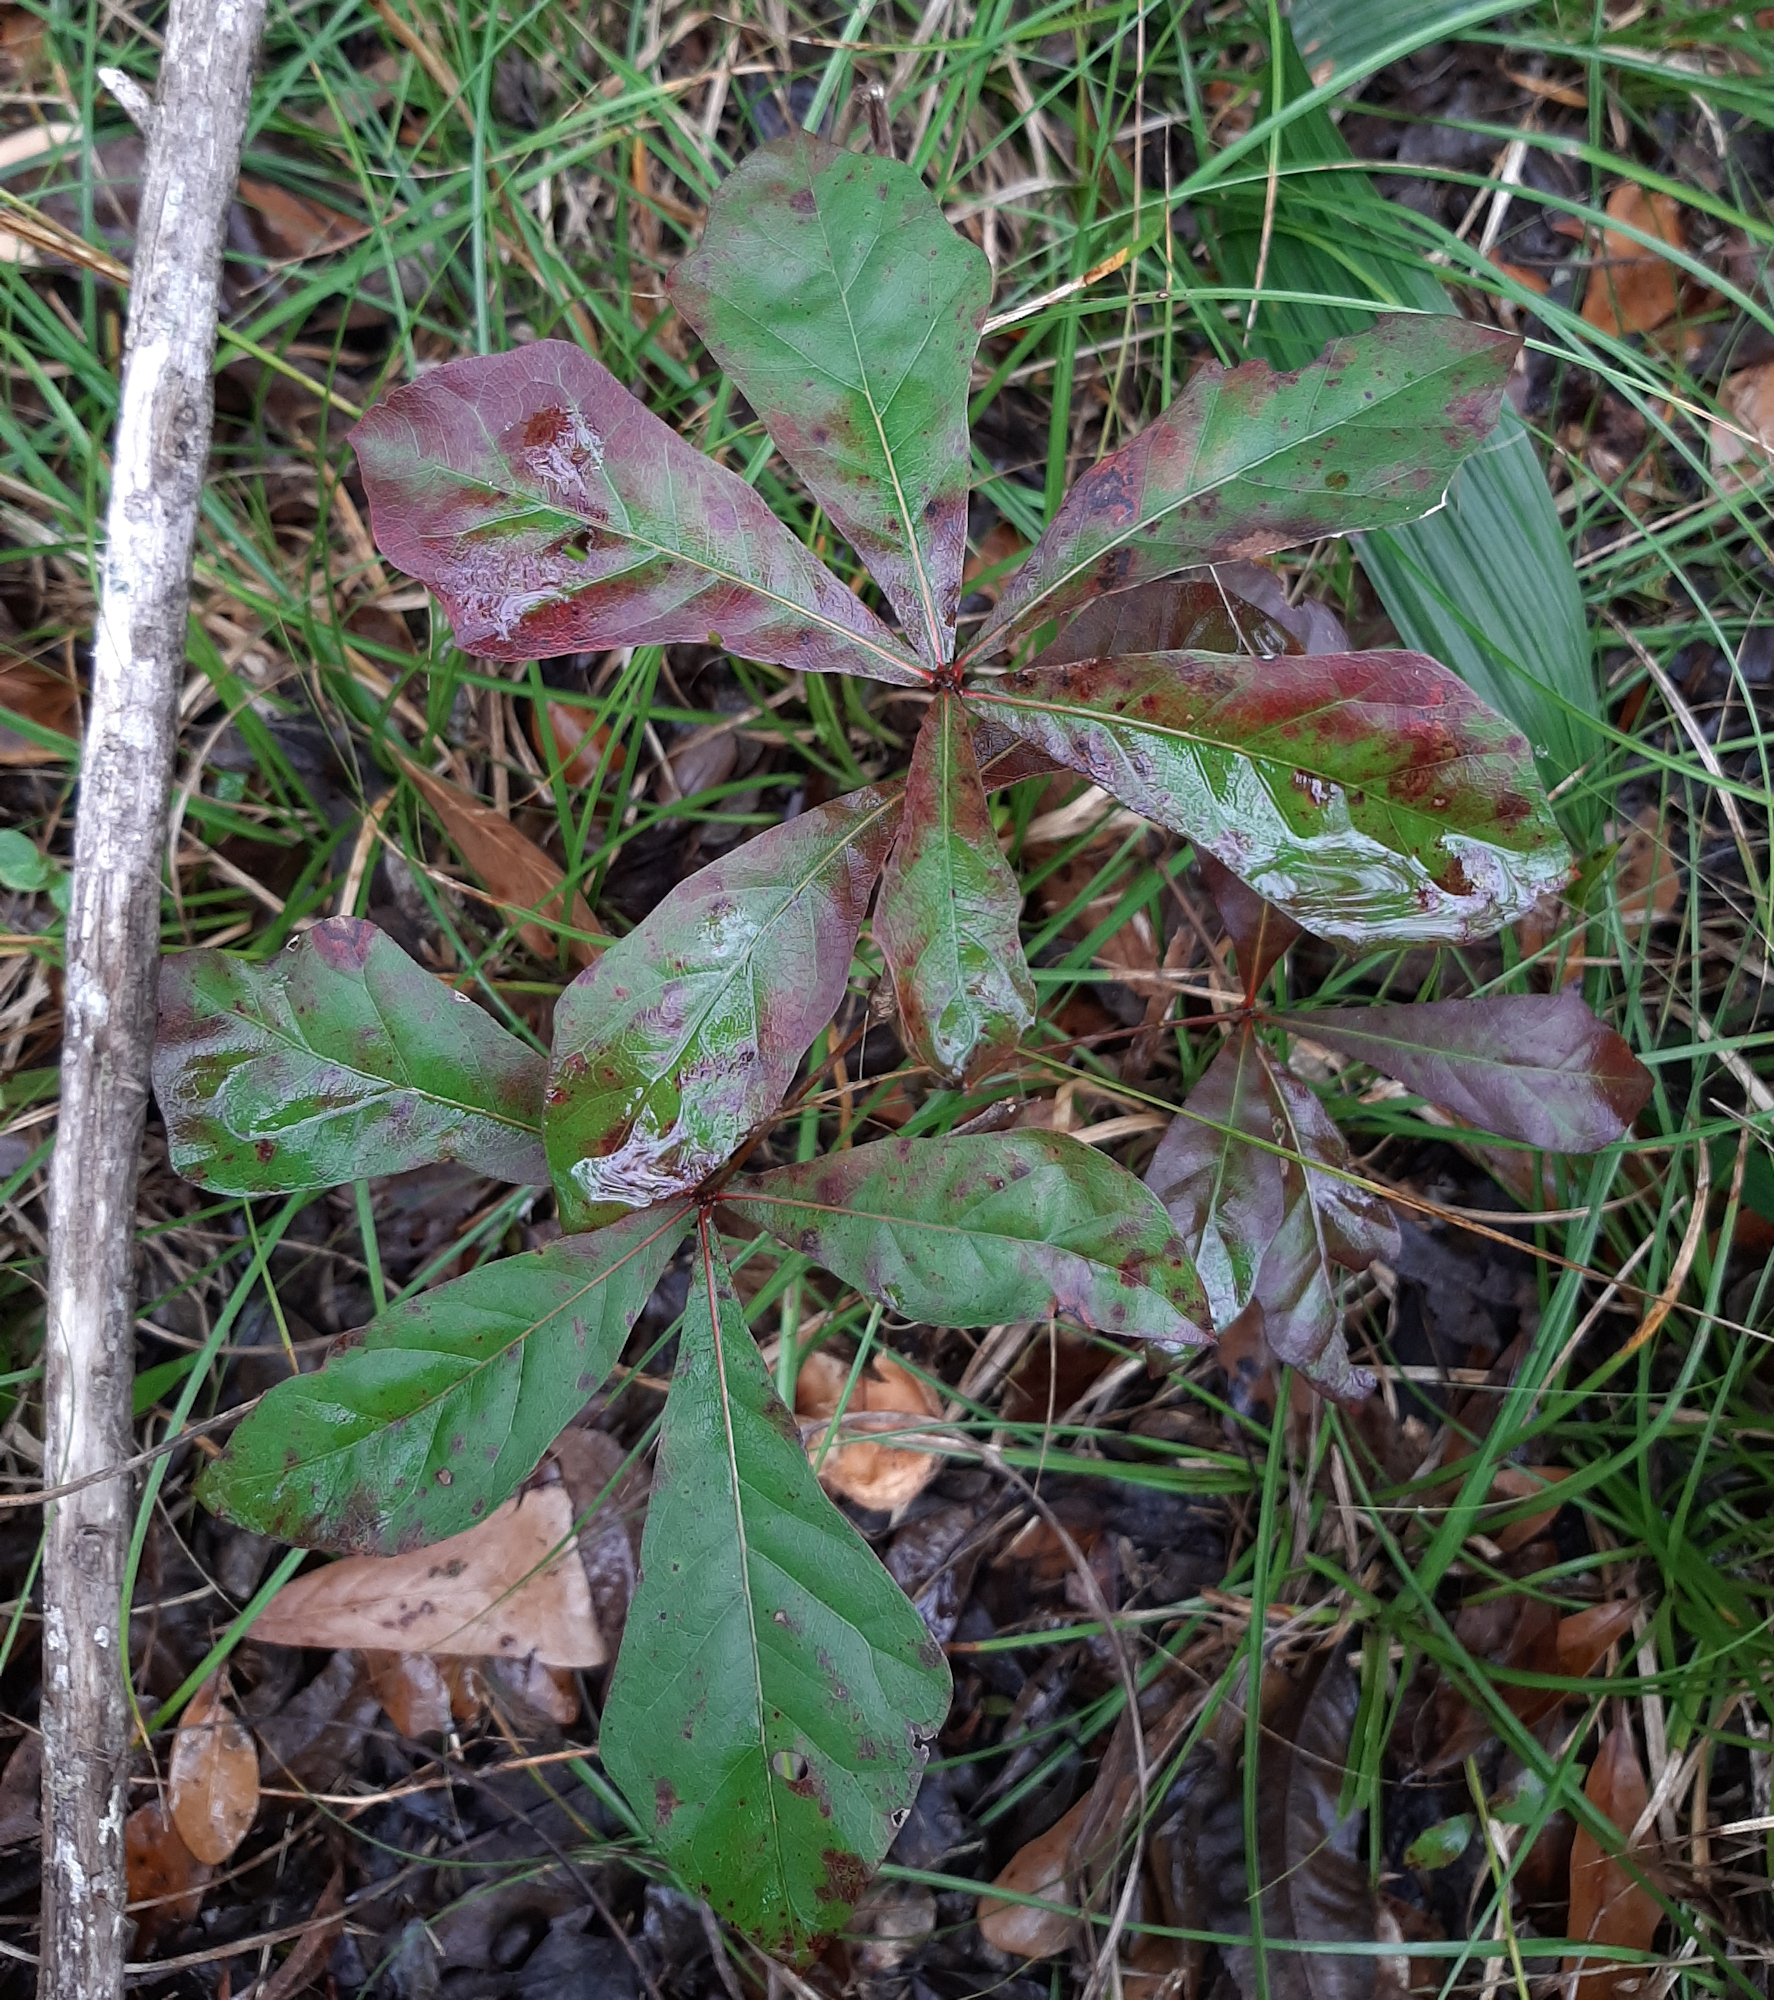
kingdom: Plantae
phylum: Tracheophyta
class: Magnoliopsida
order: Fagales
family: Fagaceae
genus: Quercus
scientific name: Quercus nigra
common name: Water oak
